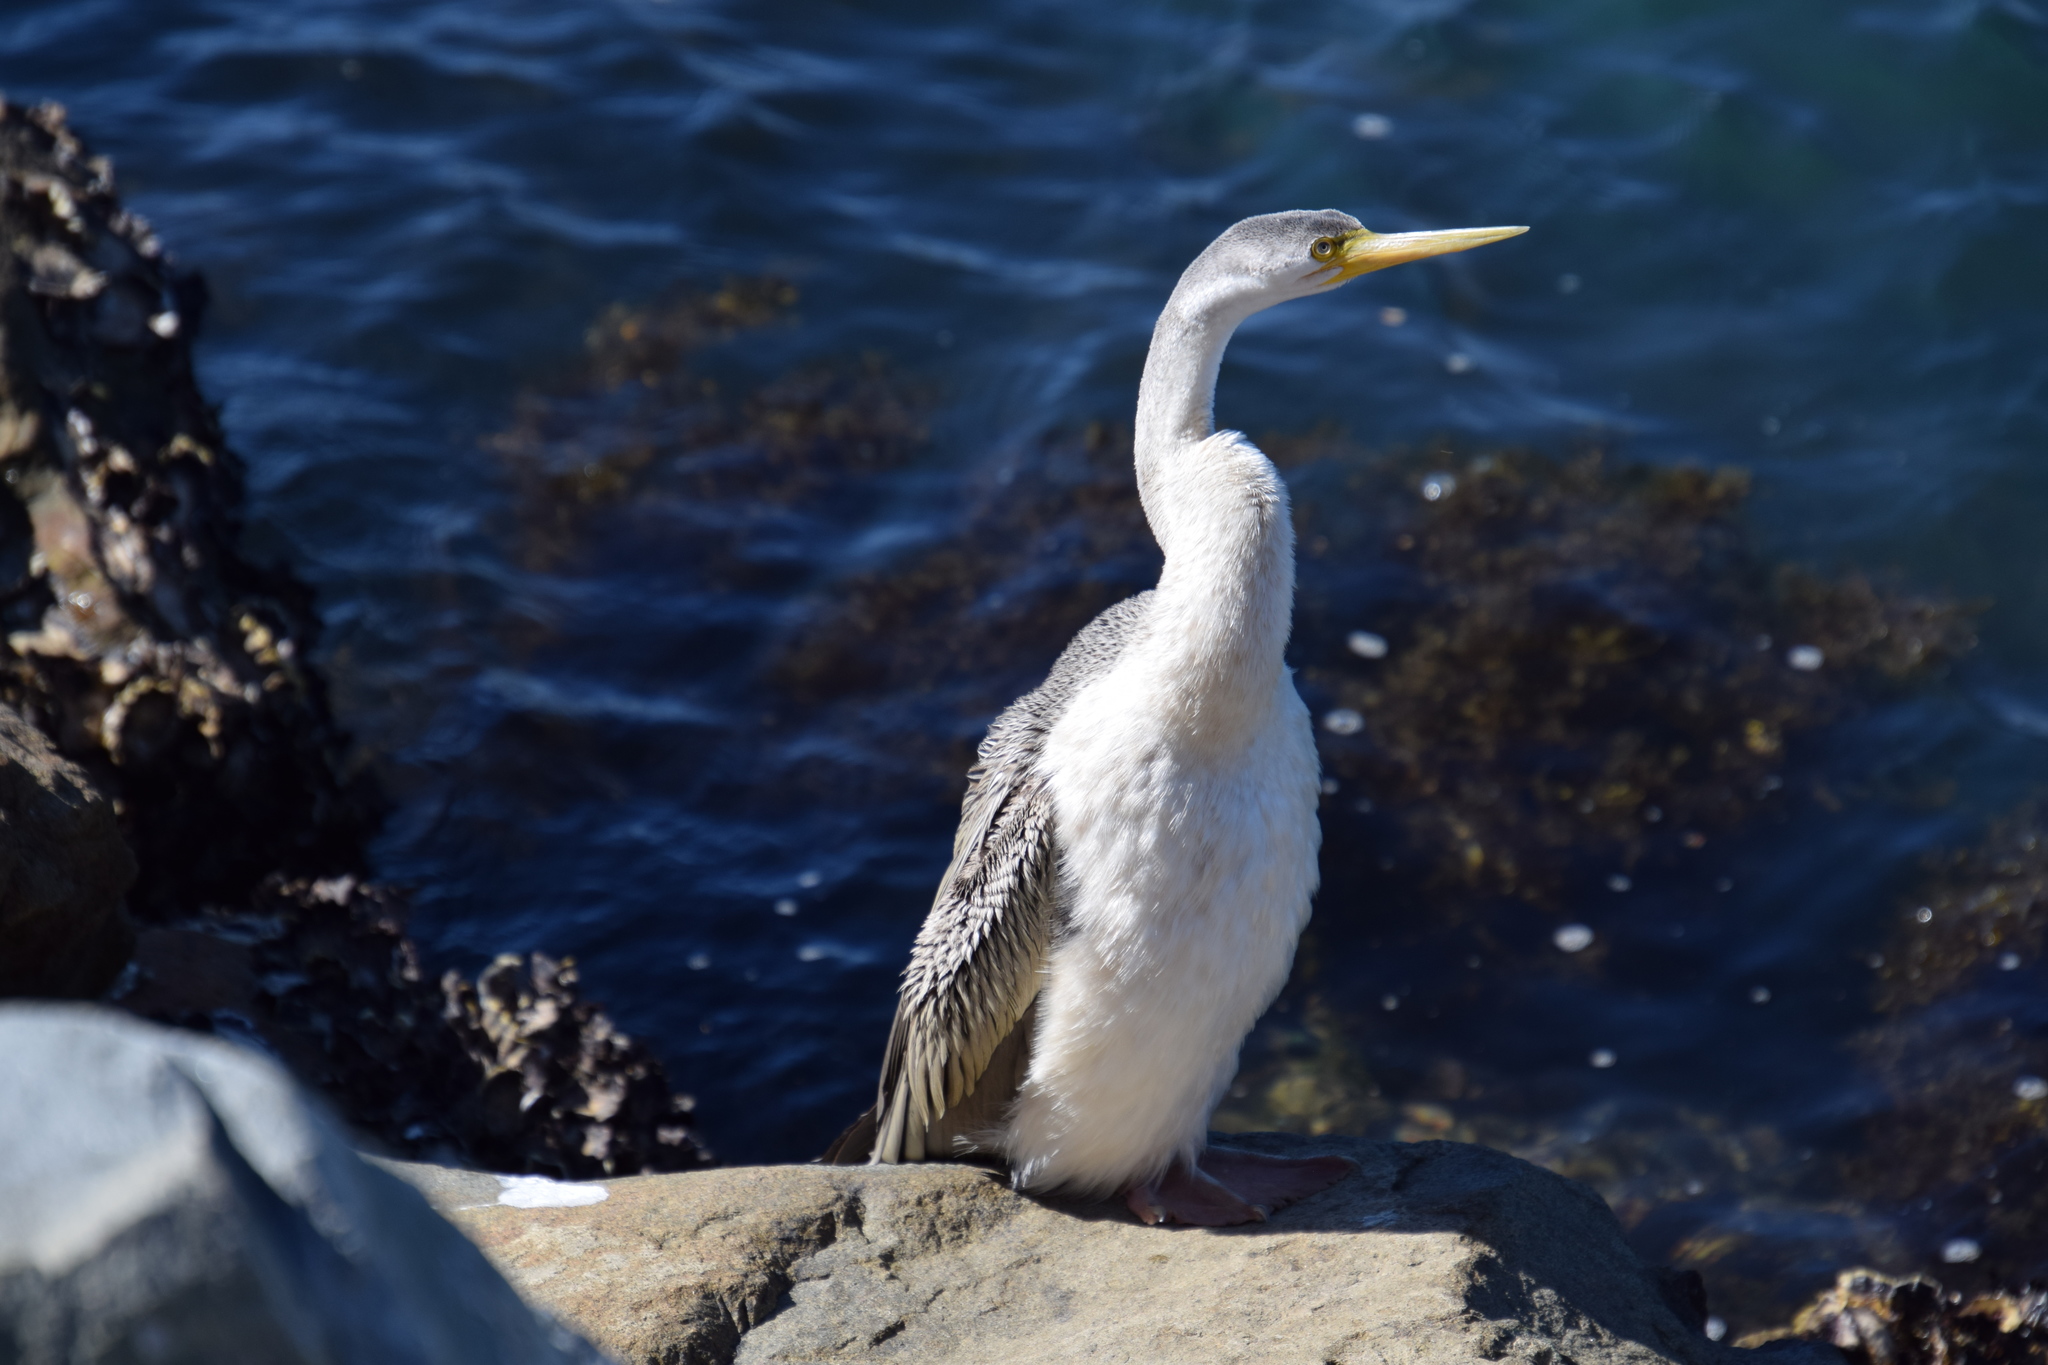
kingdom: Animalia
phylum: Chordata
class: Aves
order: Suliformes
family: Anhingidae
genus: Anhinga
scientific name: Anhinga novaehollandiae
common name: Australasian darter
